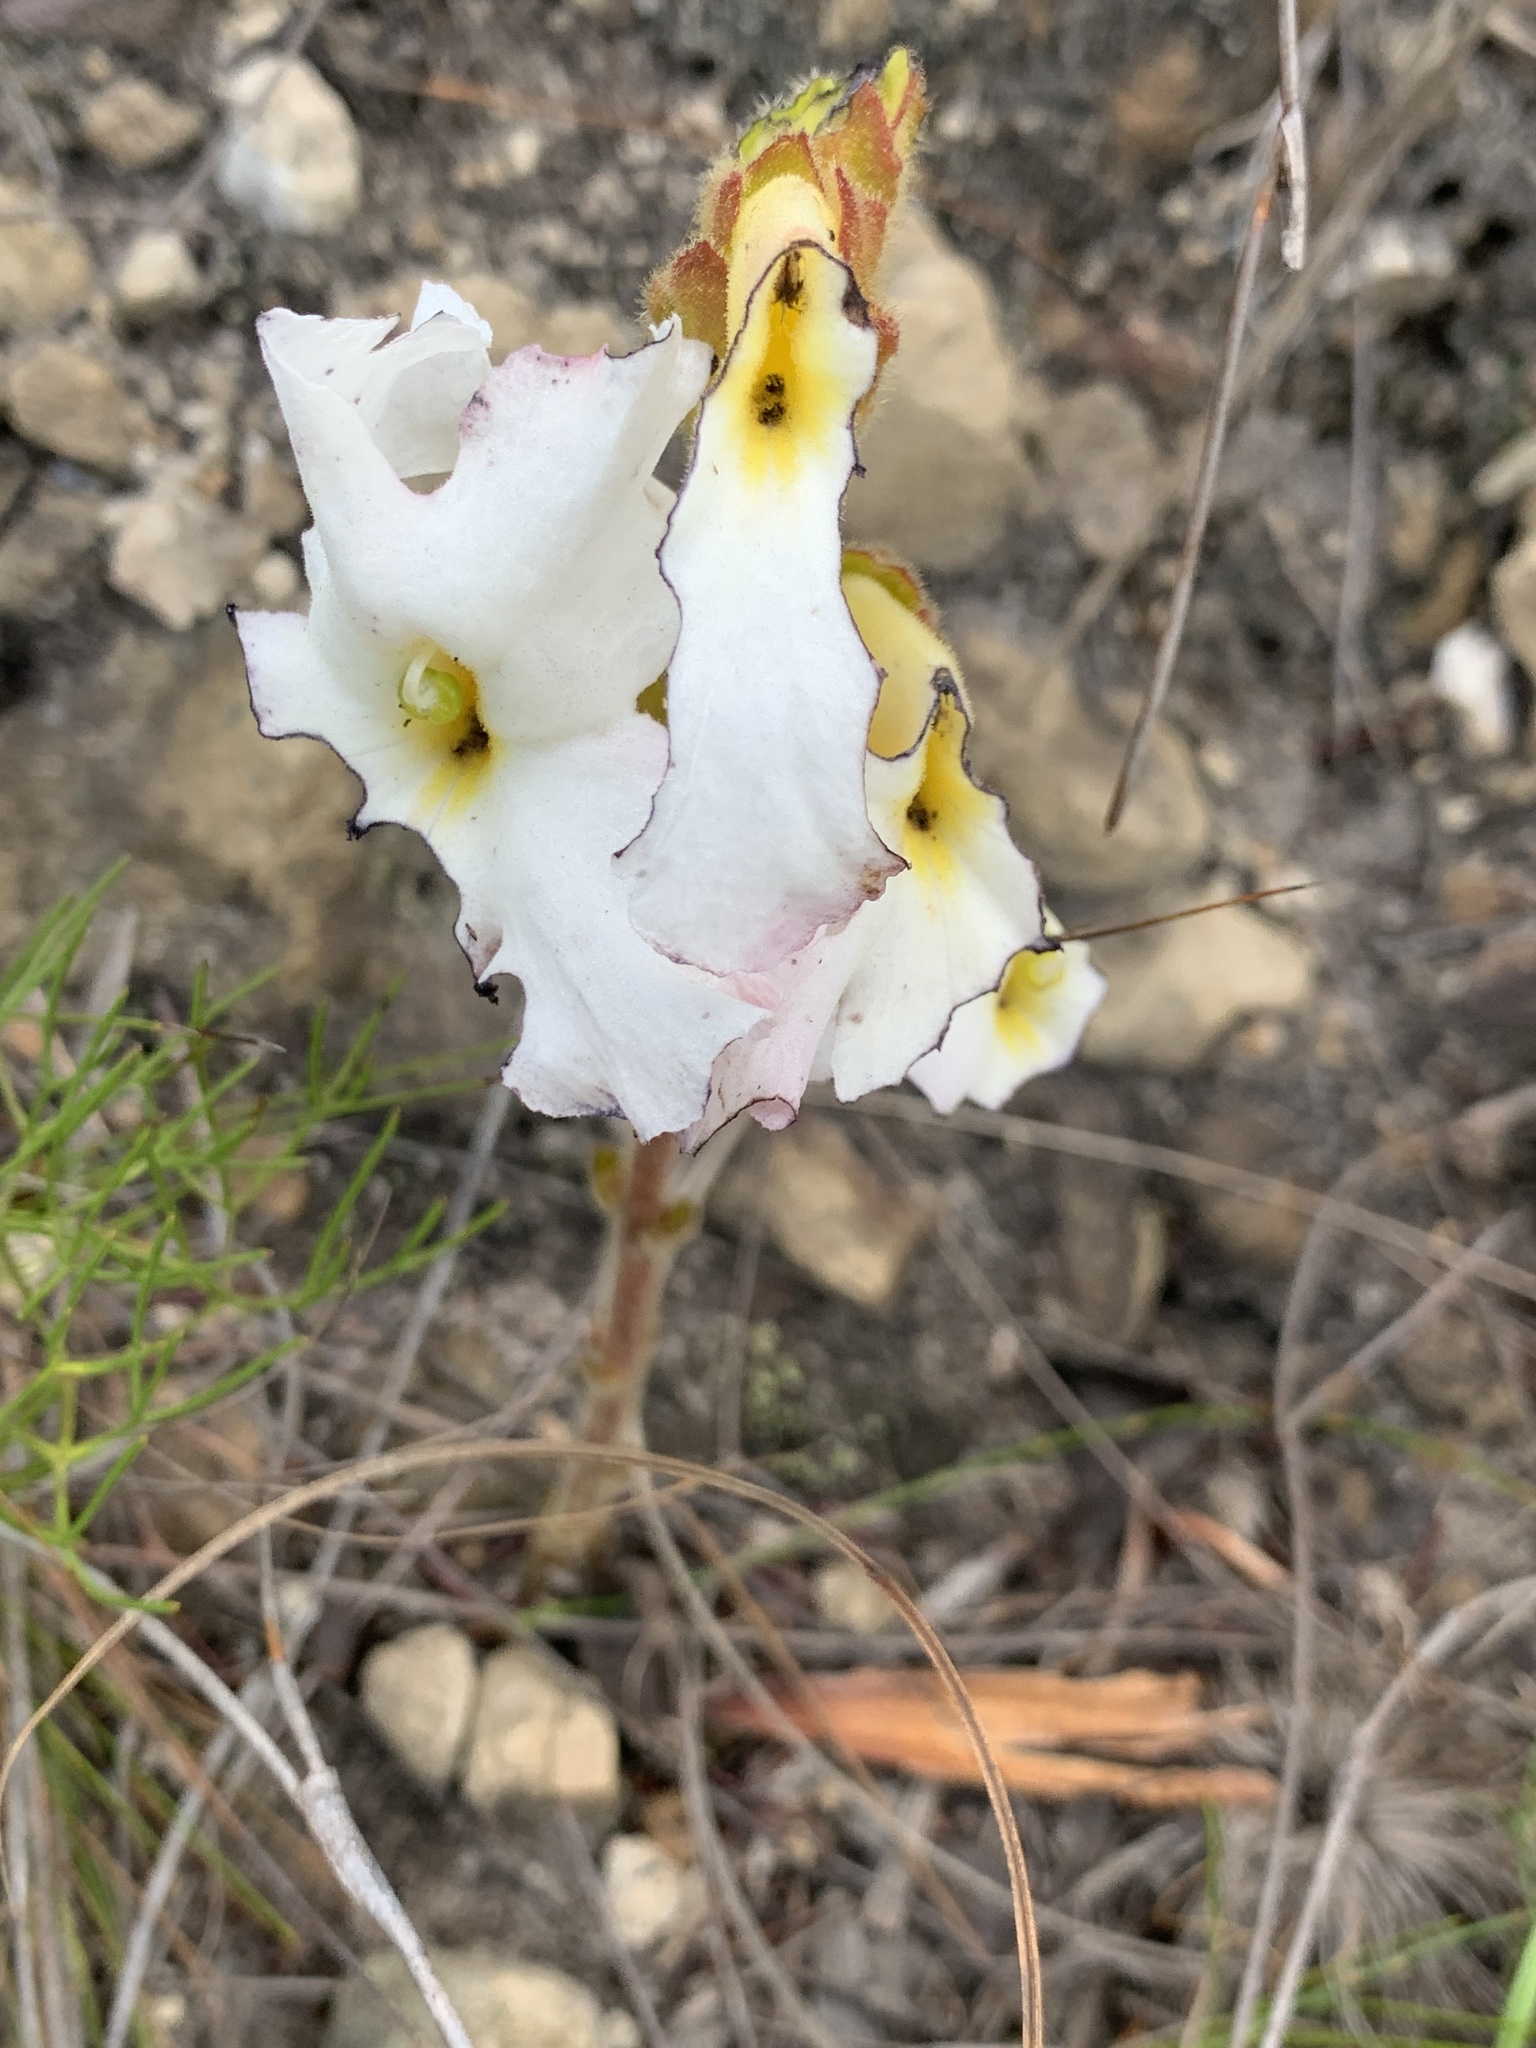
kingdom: Plantae
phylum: Tracheophyta
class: Magnoliopsida
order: Lamiales
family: Orobanchaceae
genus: Harveya
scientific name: Harveya capensis
